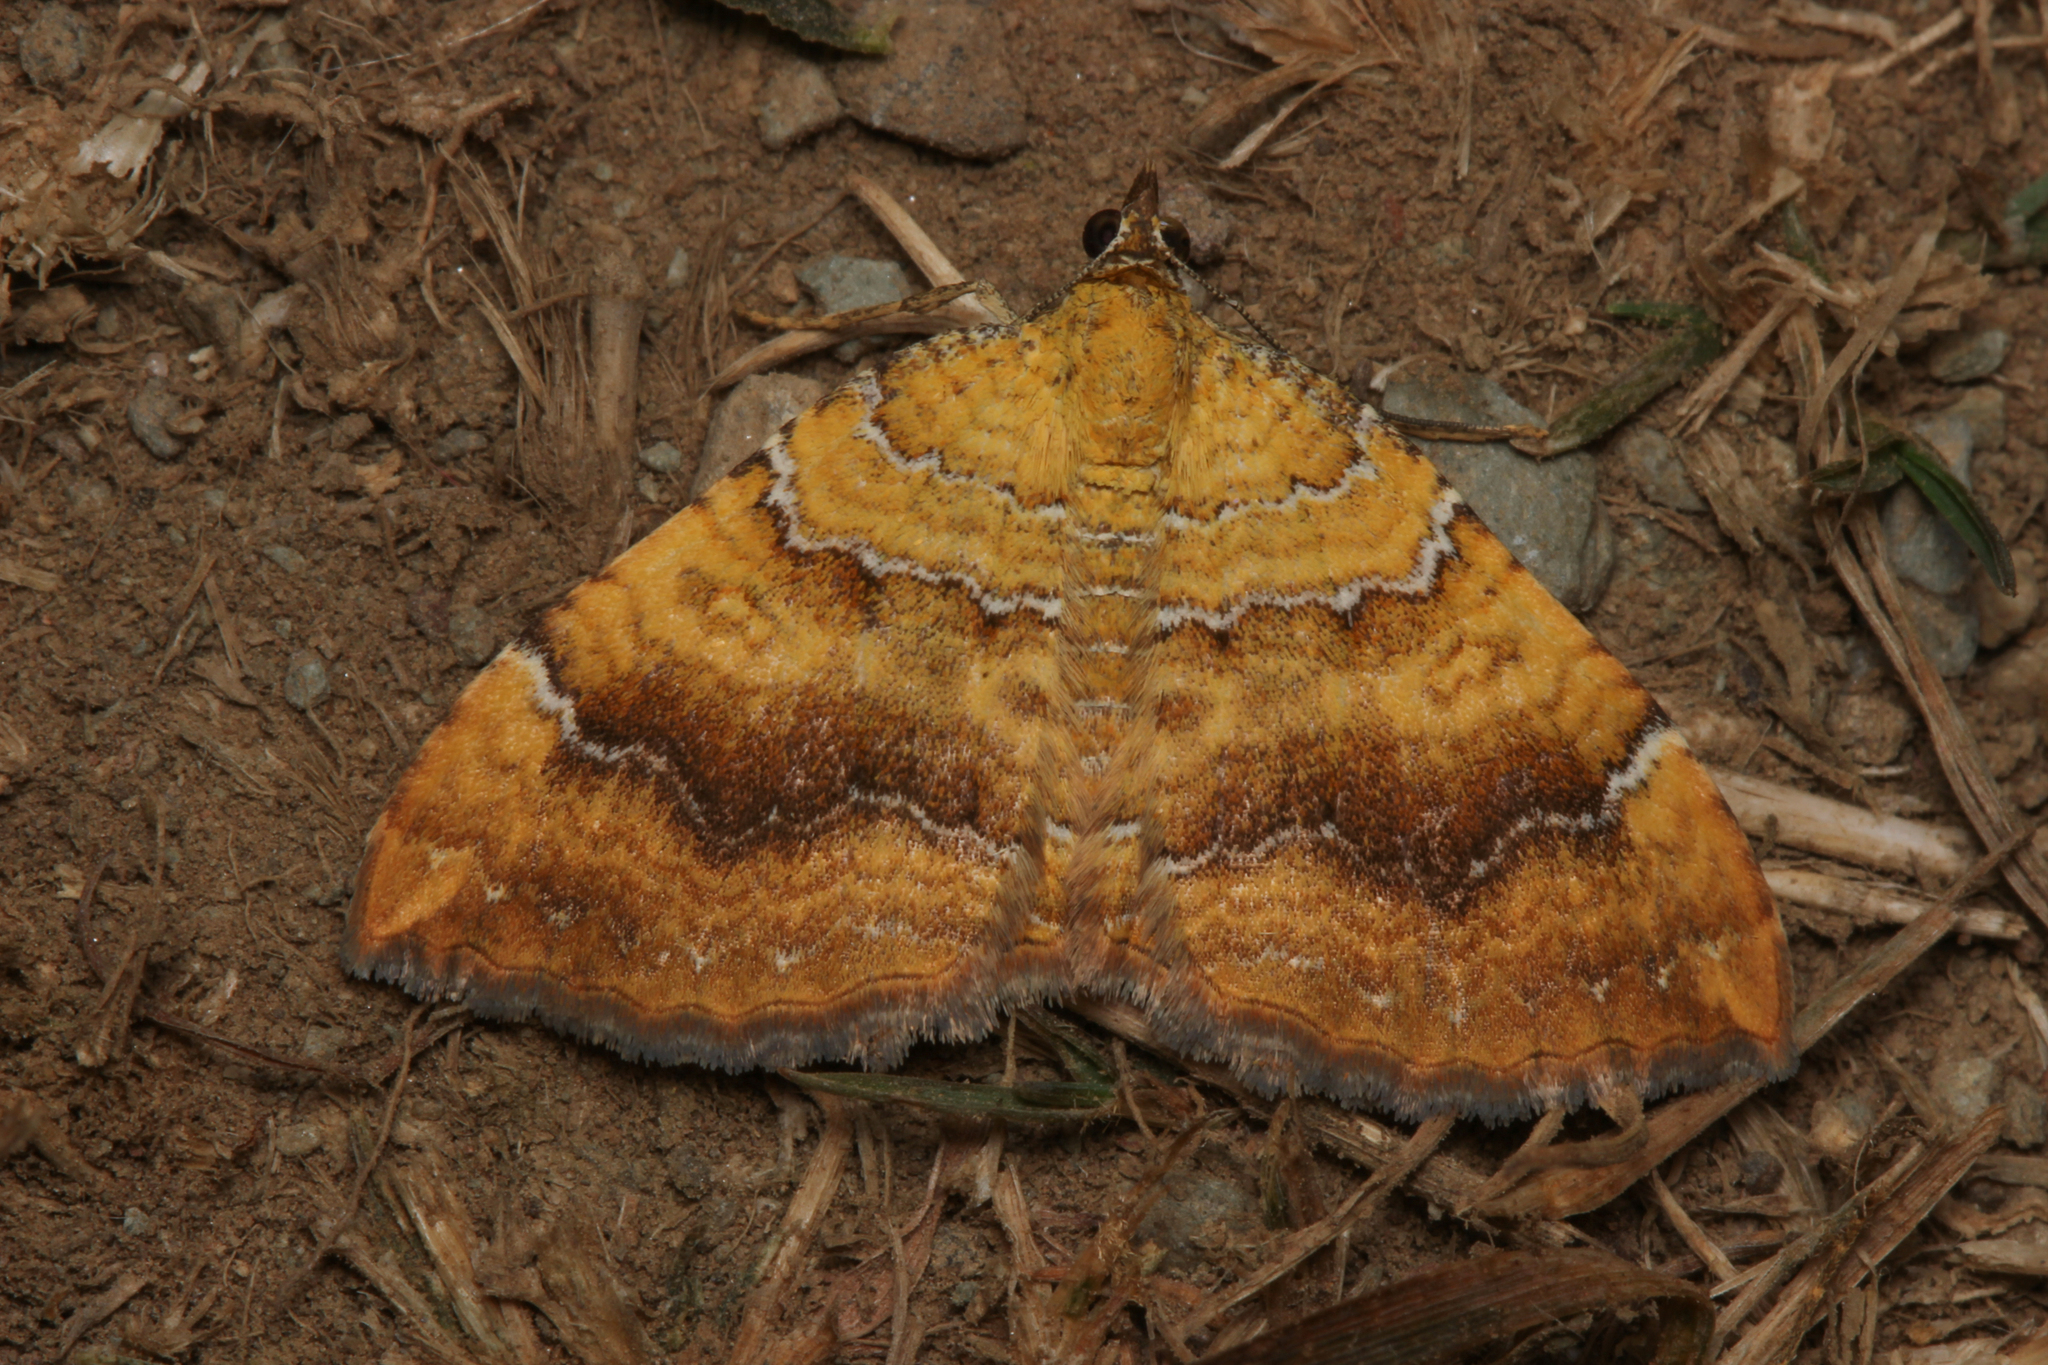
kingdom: Animalia
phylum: Arthropoda
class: Insecta
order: Lepidoptera
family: Geometridae
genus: Camptogramma
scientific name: Camptogramma bilineata
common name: Yellow shell
